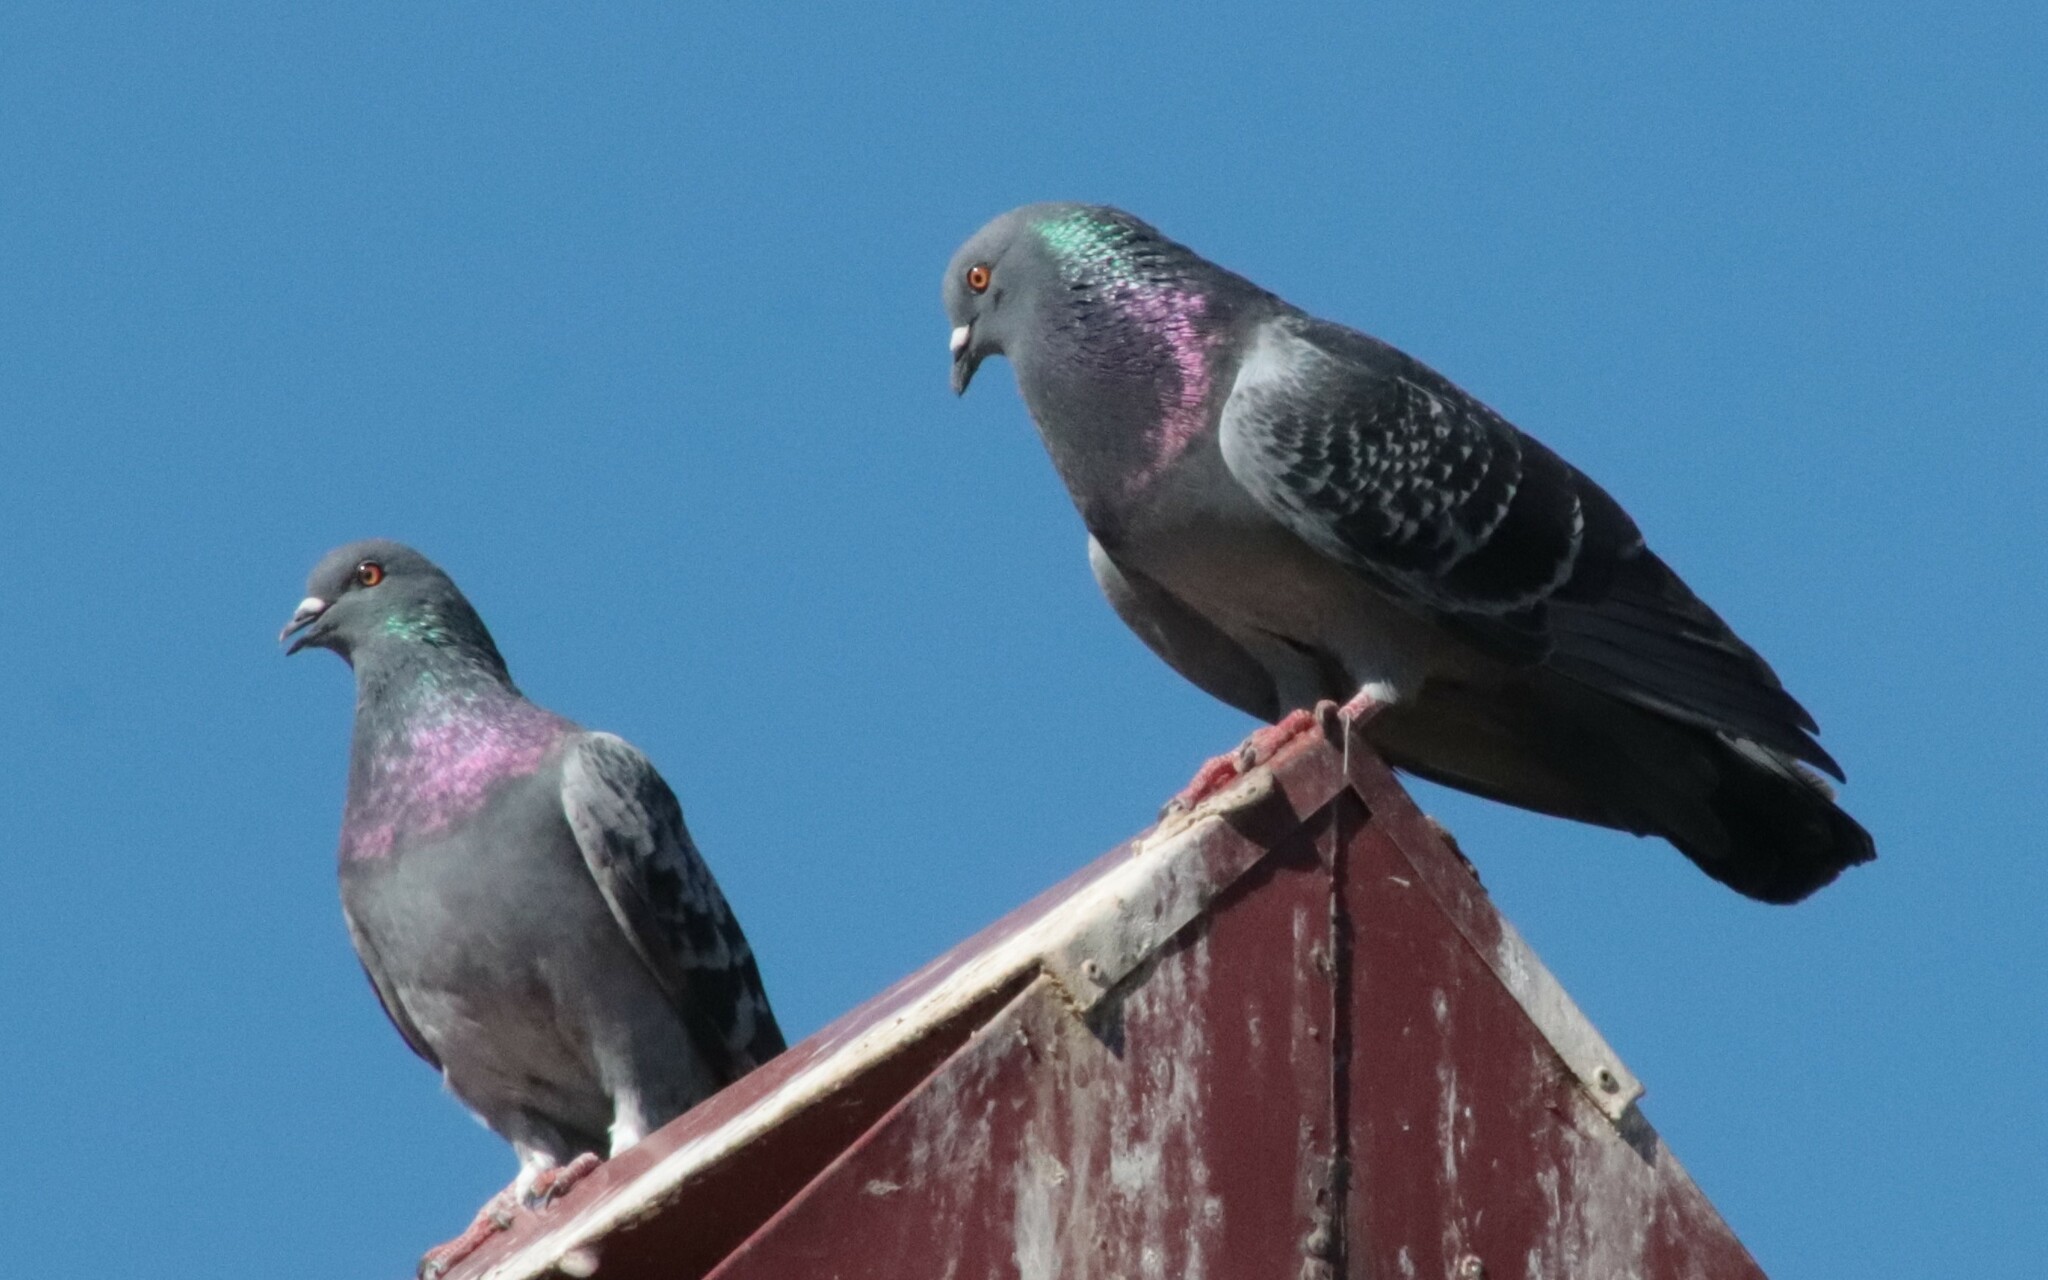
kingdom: Animalia
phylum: Chordata
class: Aves
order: Columbiformes
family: Columbidae
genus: Columba
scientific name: Columba livia
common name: Rock pigeon
